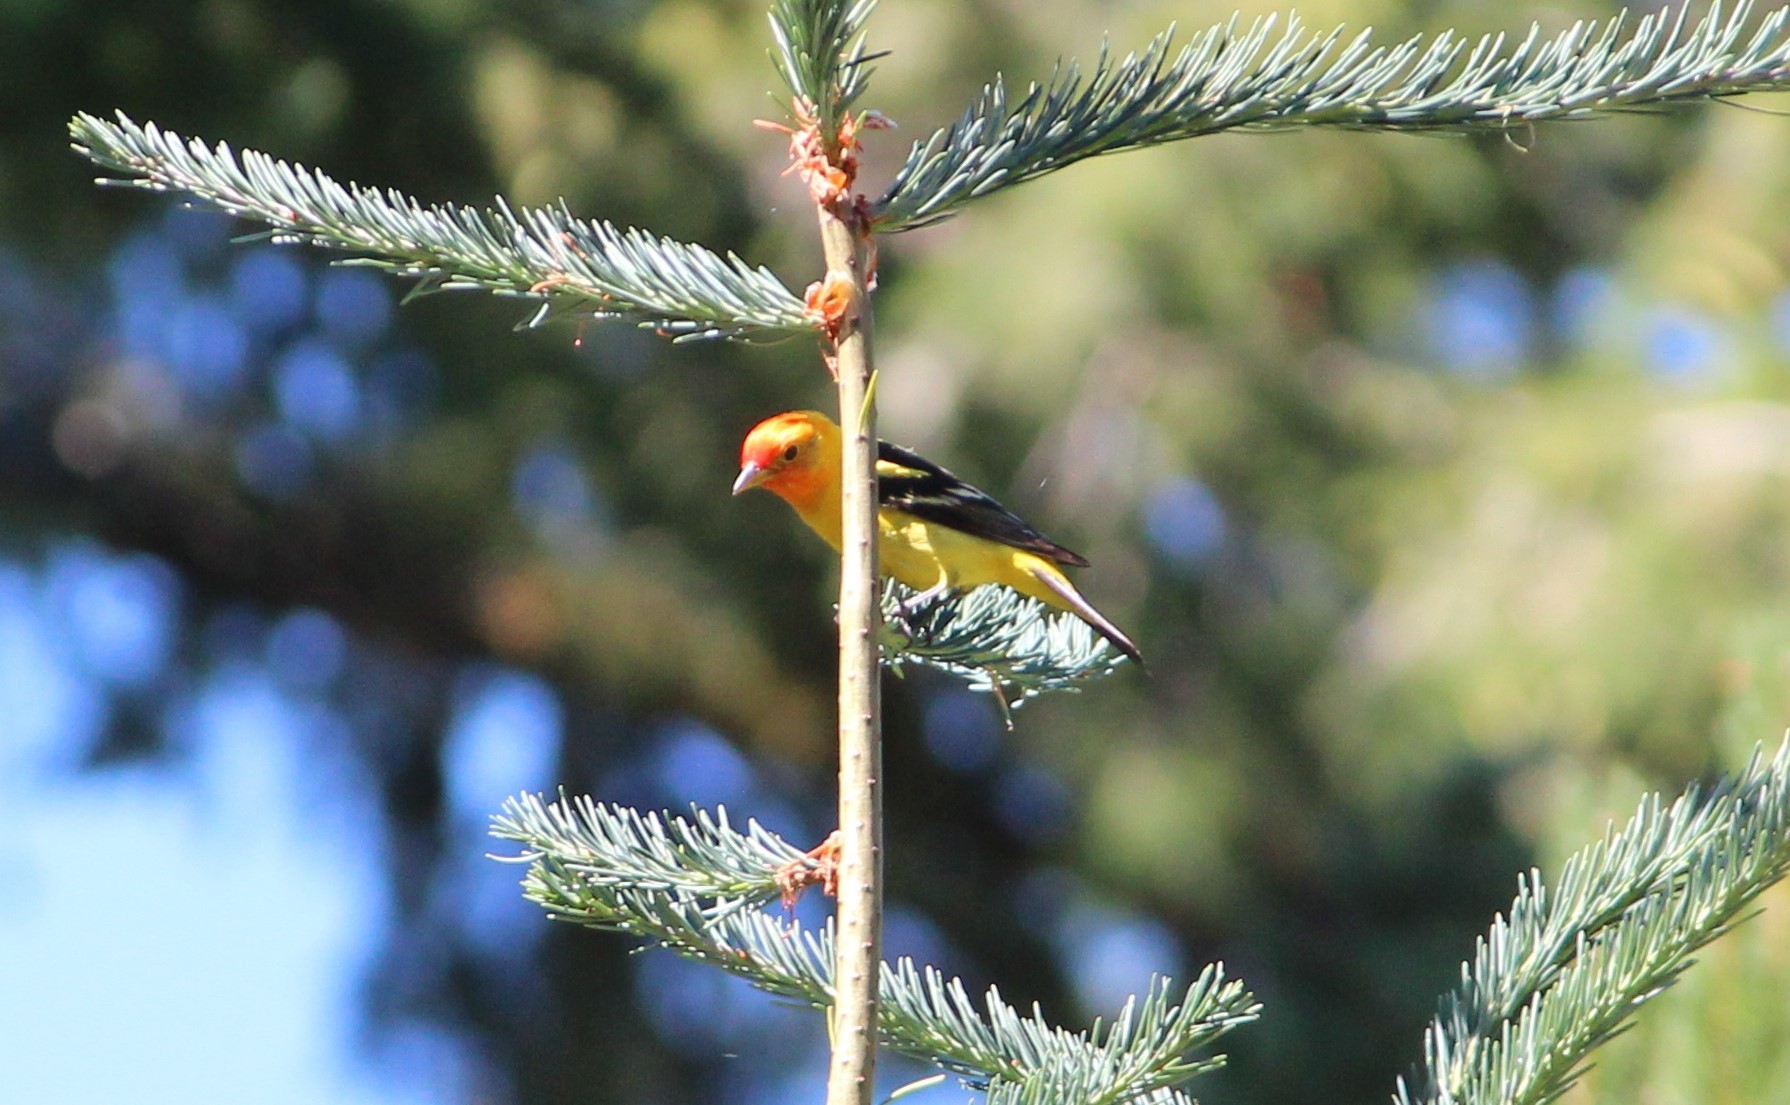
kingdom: Animalia
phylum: Chordata
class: Aves
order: Passeriformes
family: Cardinalidae
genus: Piranga
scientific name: Piranga ludoviciana
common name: Western tanager
